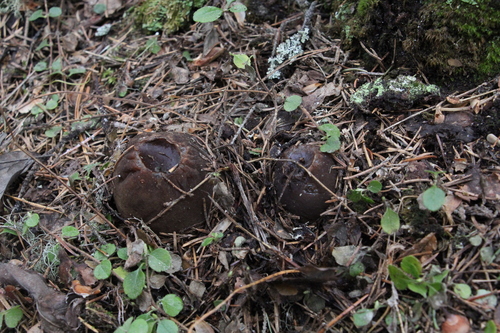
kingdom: Fungi
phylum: Ascomycota
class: Pezizomycetes
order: Pezizales
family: Sarcosomataceae
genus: Sarcosoma
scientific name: Sarcosoma globosum
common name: Charred-pancake cup
